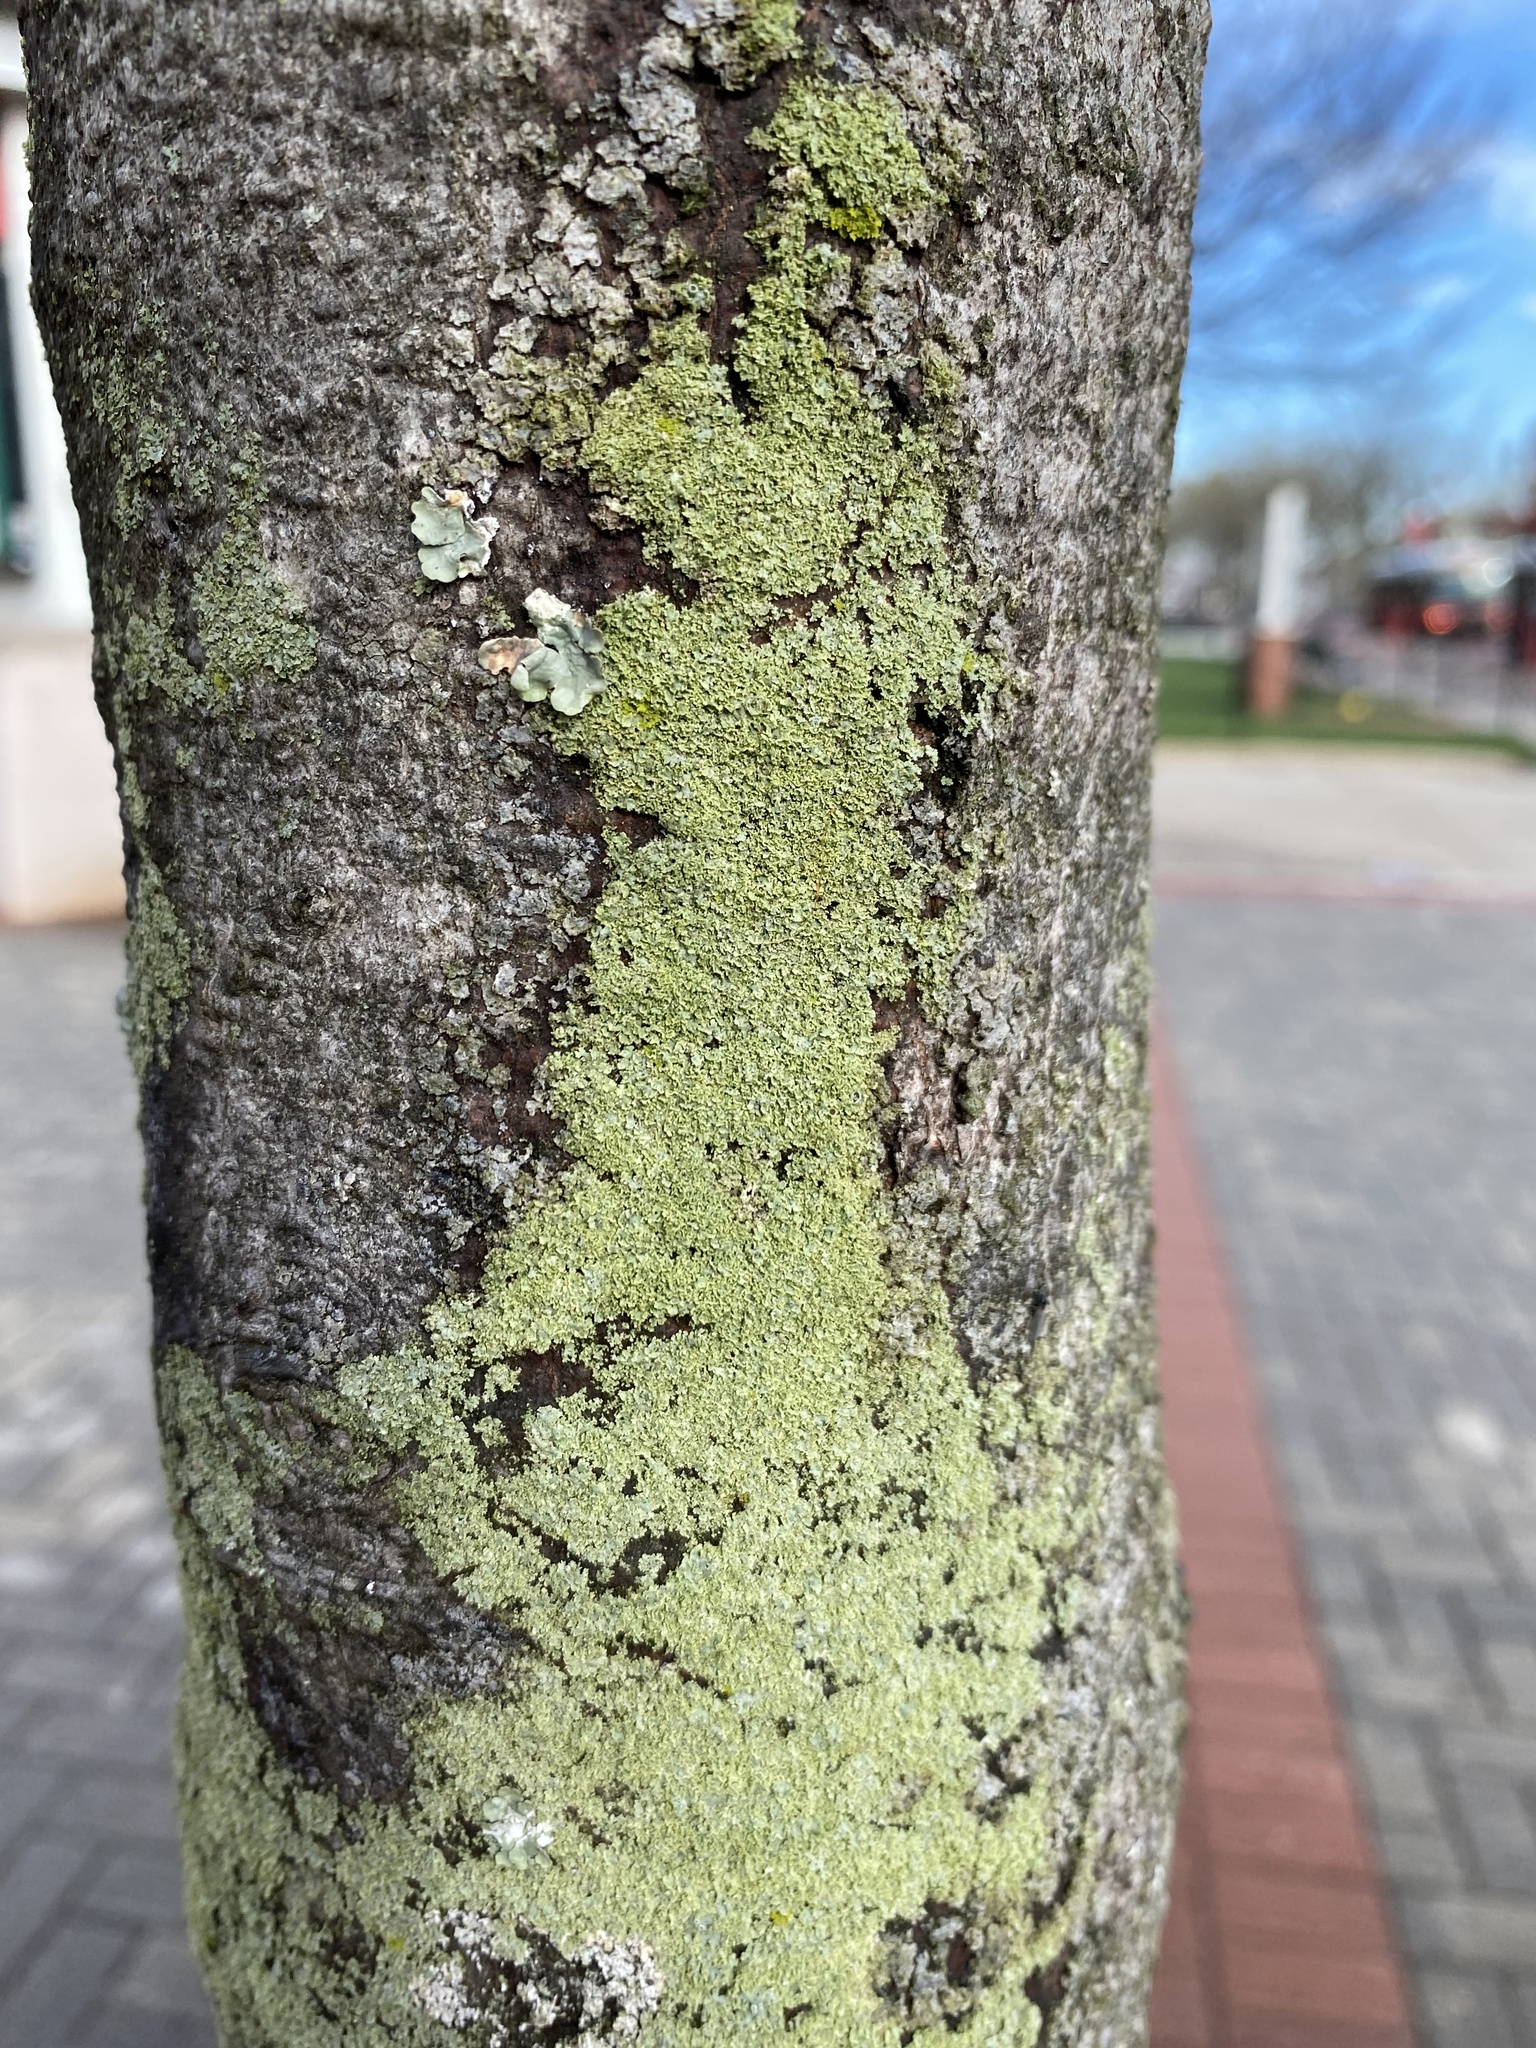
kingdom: Fungi
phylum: Ascomycota
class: Lecanoromycetes
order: Caliciales
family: Physciaceae
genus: Physcia
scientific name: Physcia millegrana
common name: Rosette lichen
